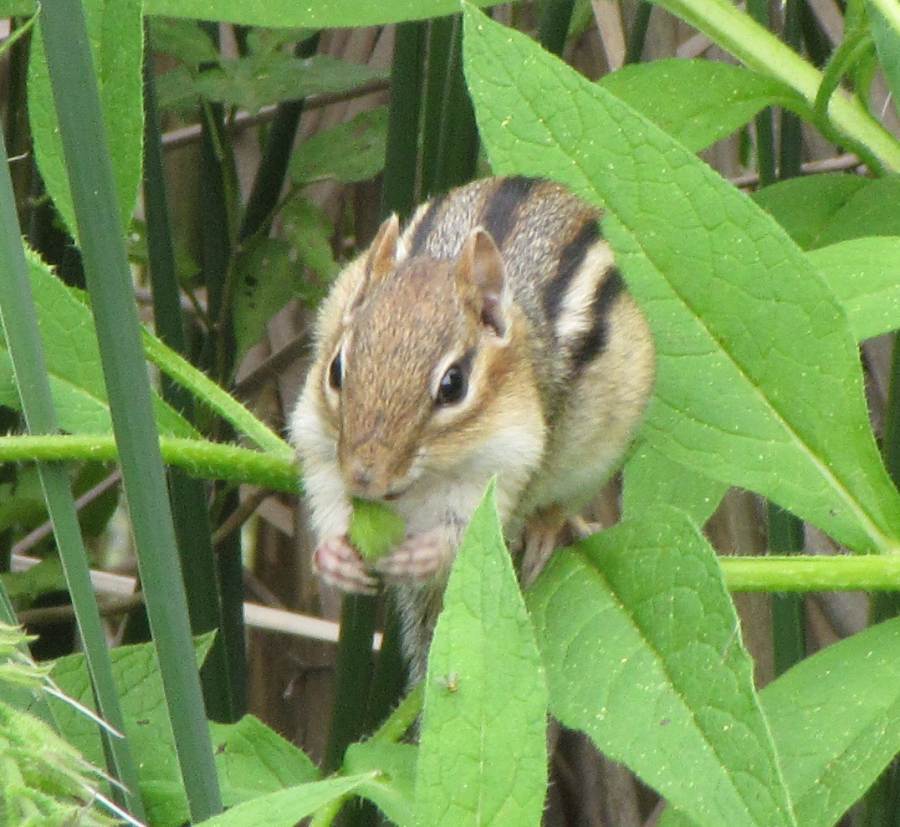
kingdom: Animalia
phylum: Chordata
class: Mammalia
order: Rodentia
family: Sciuridae
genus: Tamias
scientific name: Tamias striatus
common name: Eastern chipmunk
